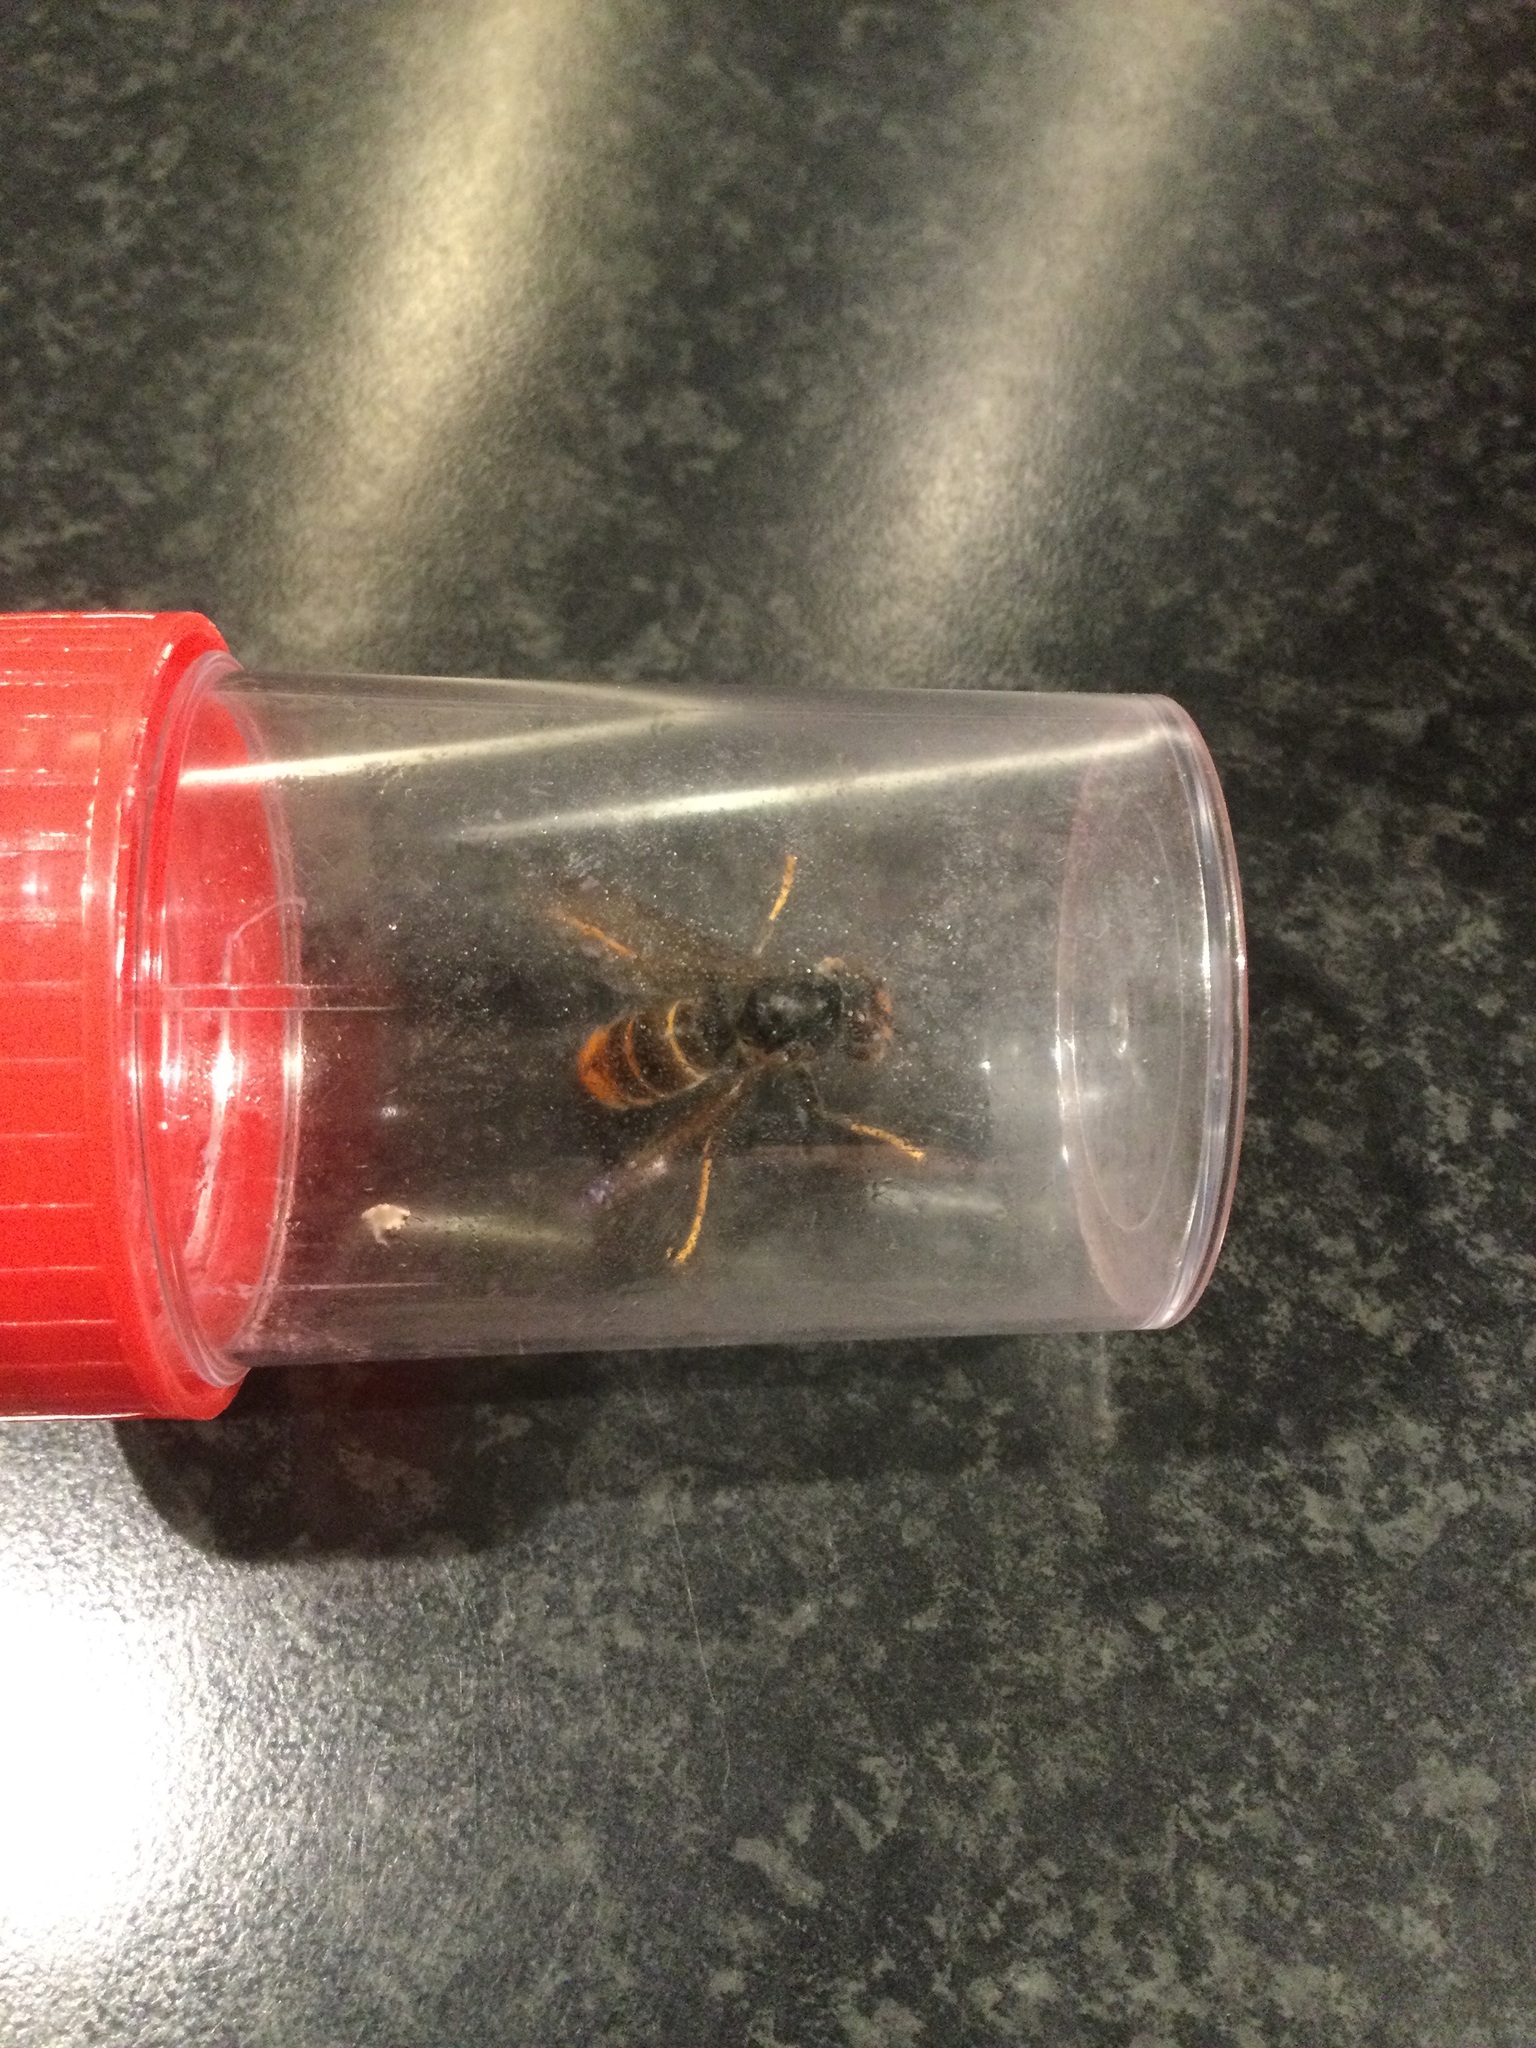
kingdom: Animalia
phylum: Arthropoda
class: Insecta
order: Hymenoptera
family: Vespidae
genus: Vespa
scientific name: Vespa velutina
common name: Asian hornet
